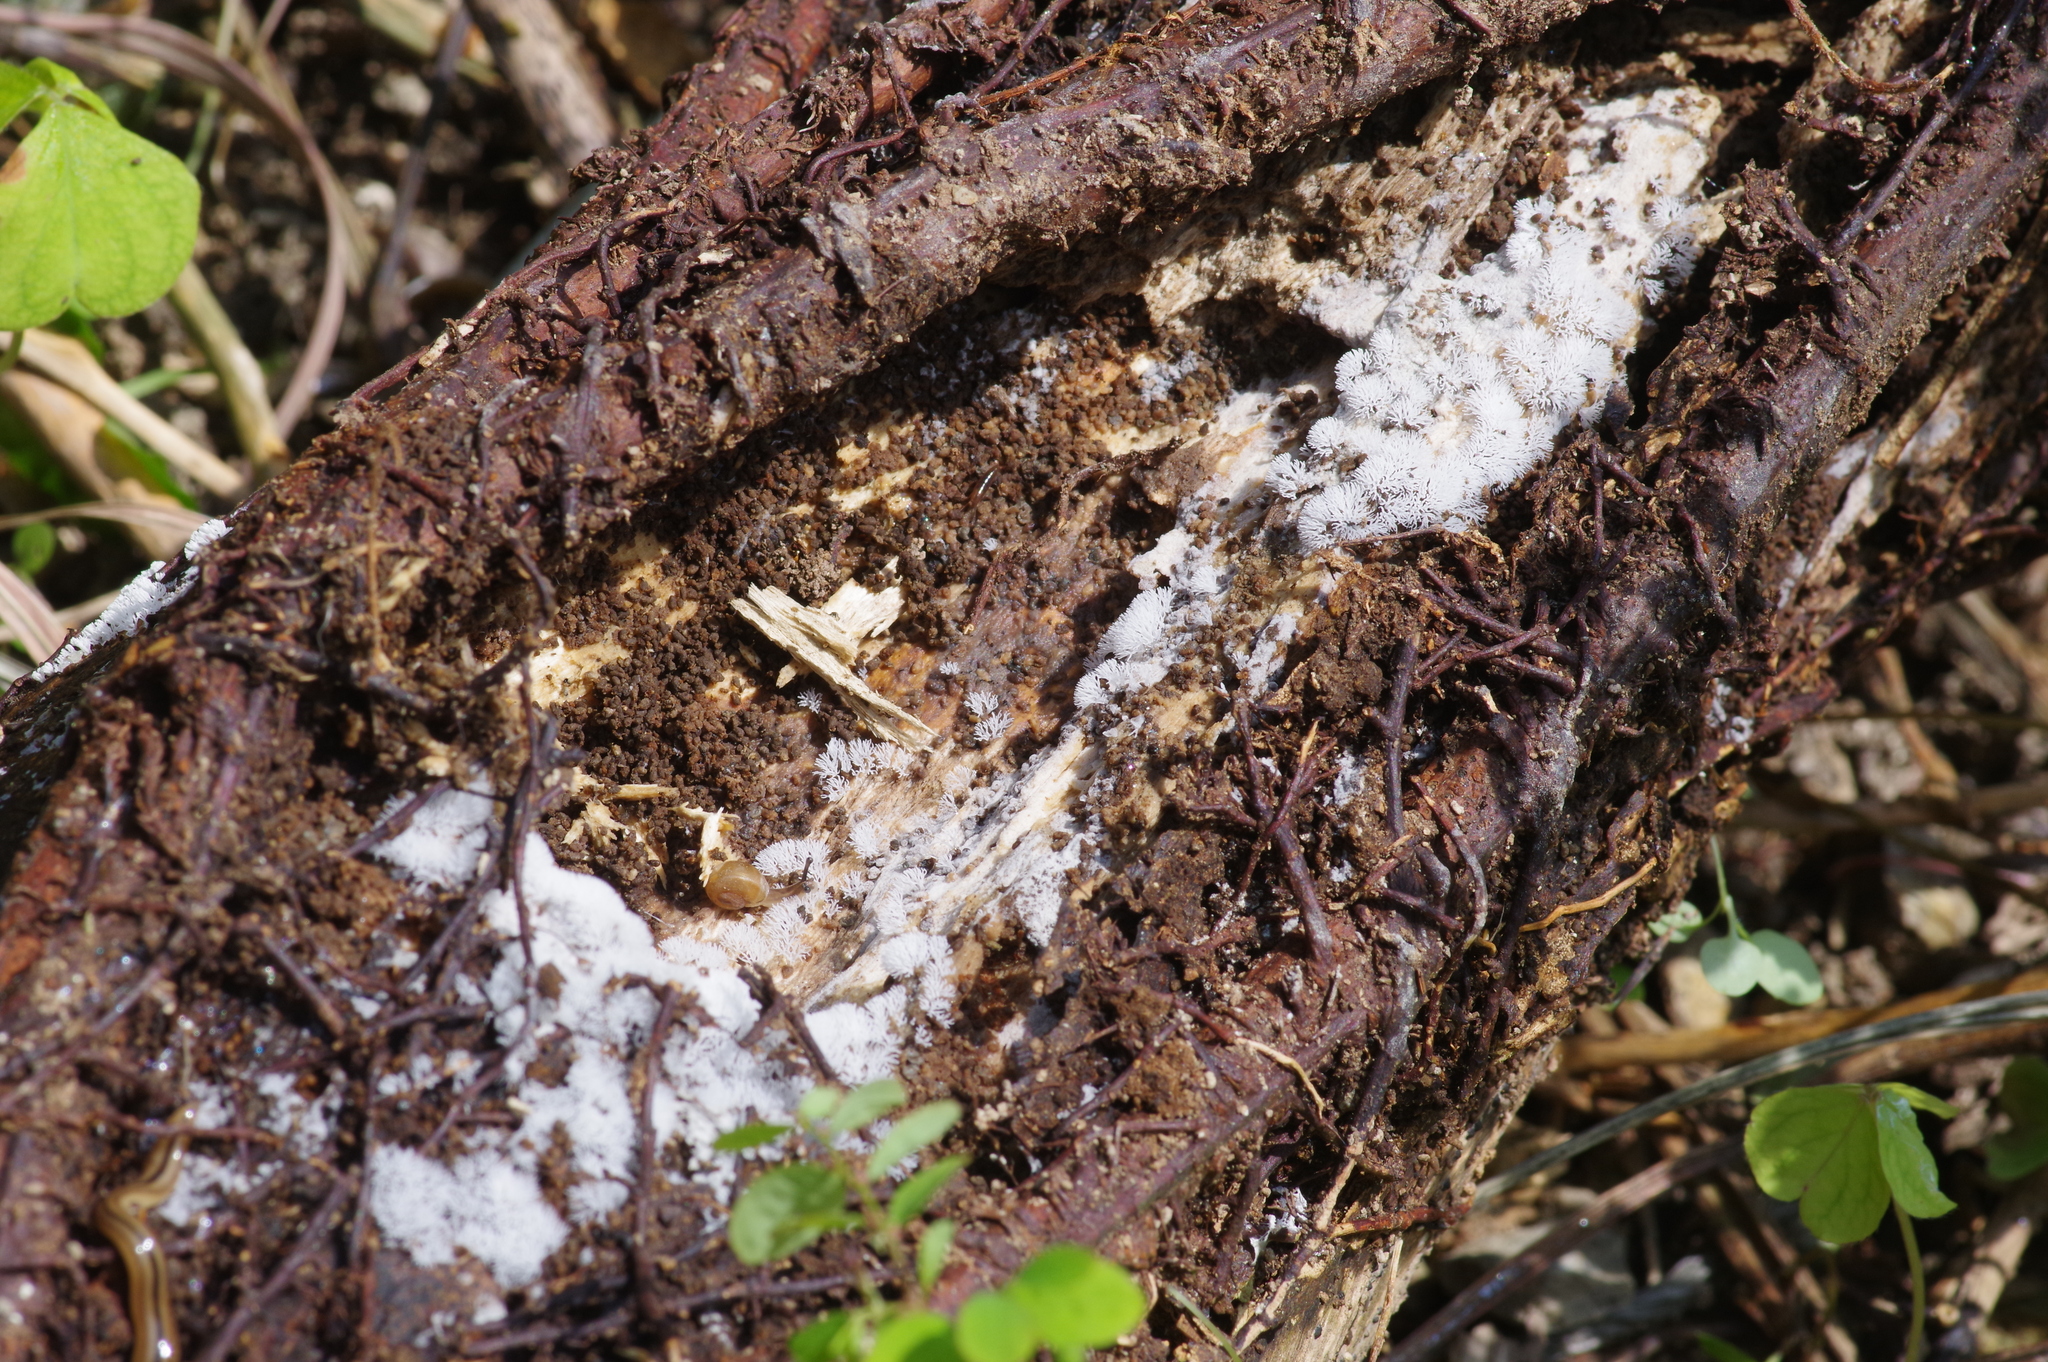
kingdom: Protozoa
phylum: Mycetozoa
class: Protosteliomycetes
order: Ceratiomyxales
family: Ceratiomyxaceae
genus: Ceratiomyxa
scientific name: Ceratiomyxa fruticulosa
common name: Honeycomb coral slime mold
